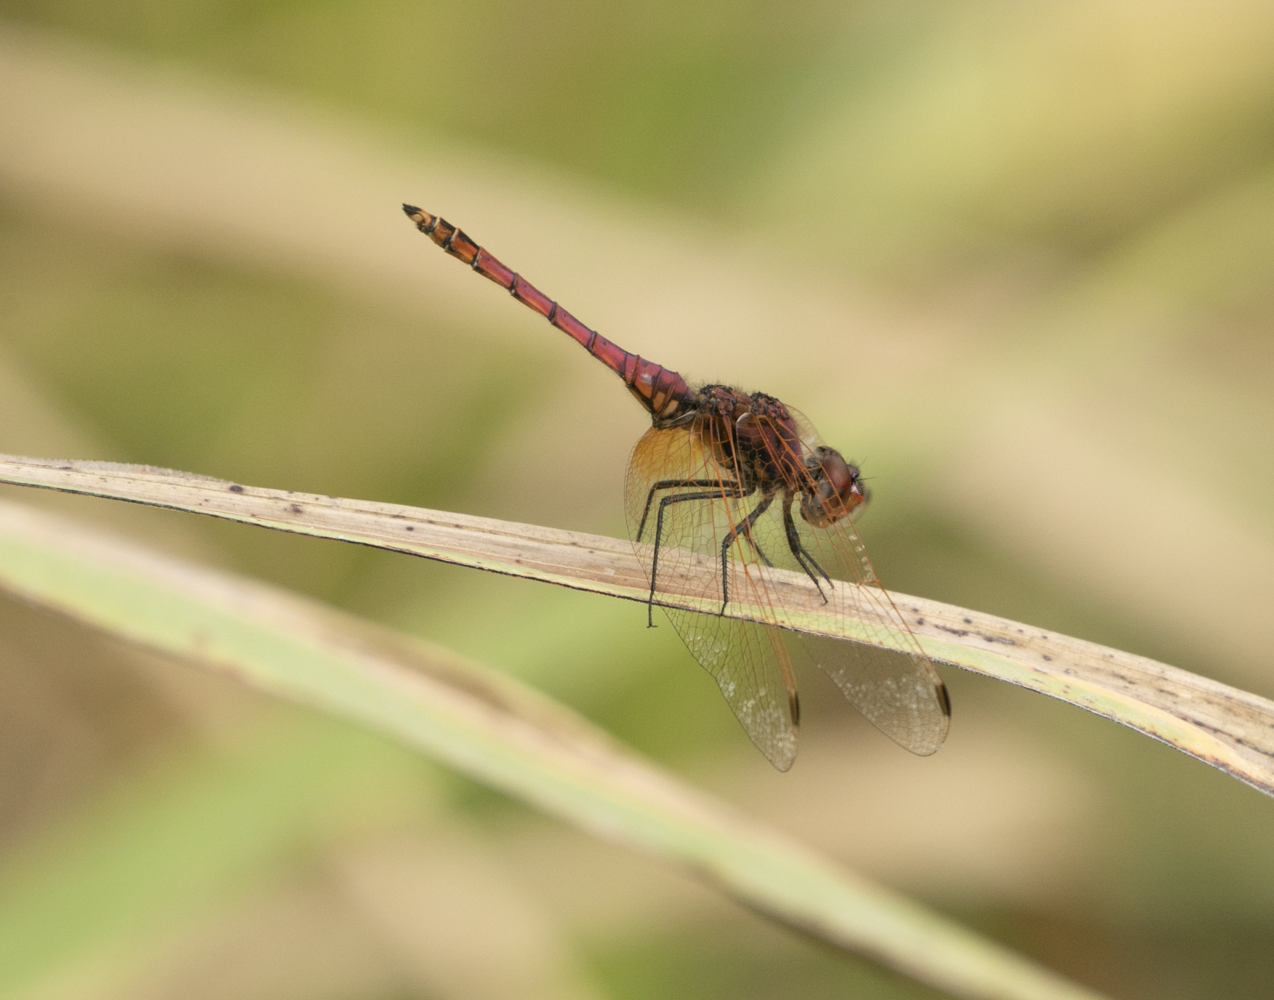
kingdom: Animalia
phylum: Arthropoda
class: Insecta
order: Odonata
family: Libellulidae
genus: Trithemis
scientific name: Trithemis annulata
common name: Violet dropwing
